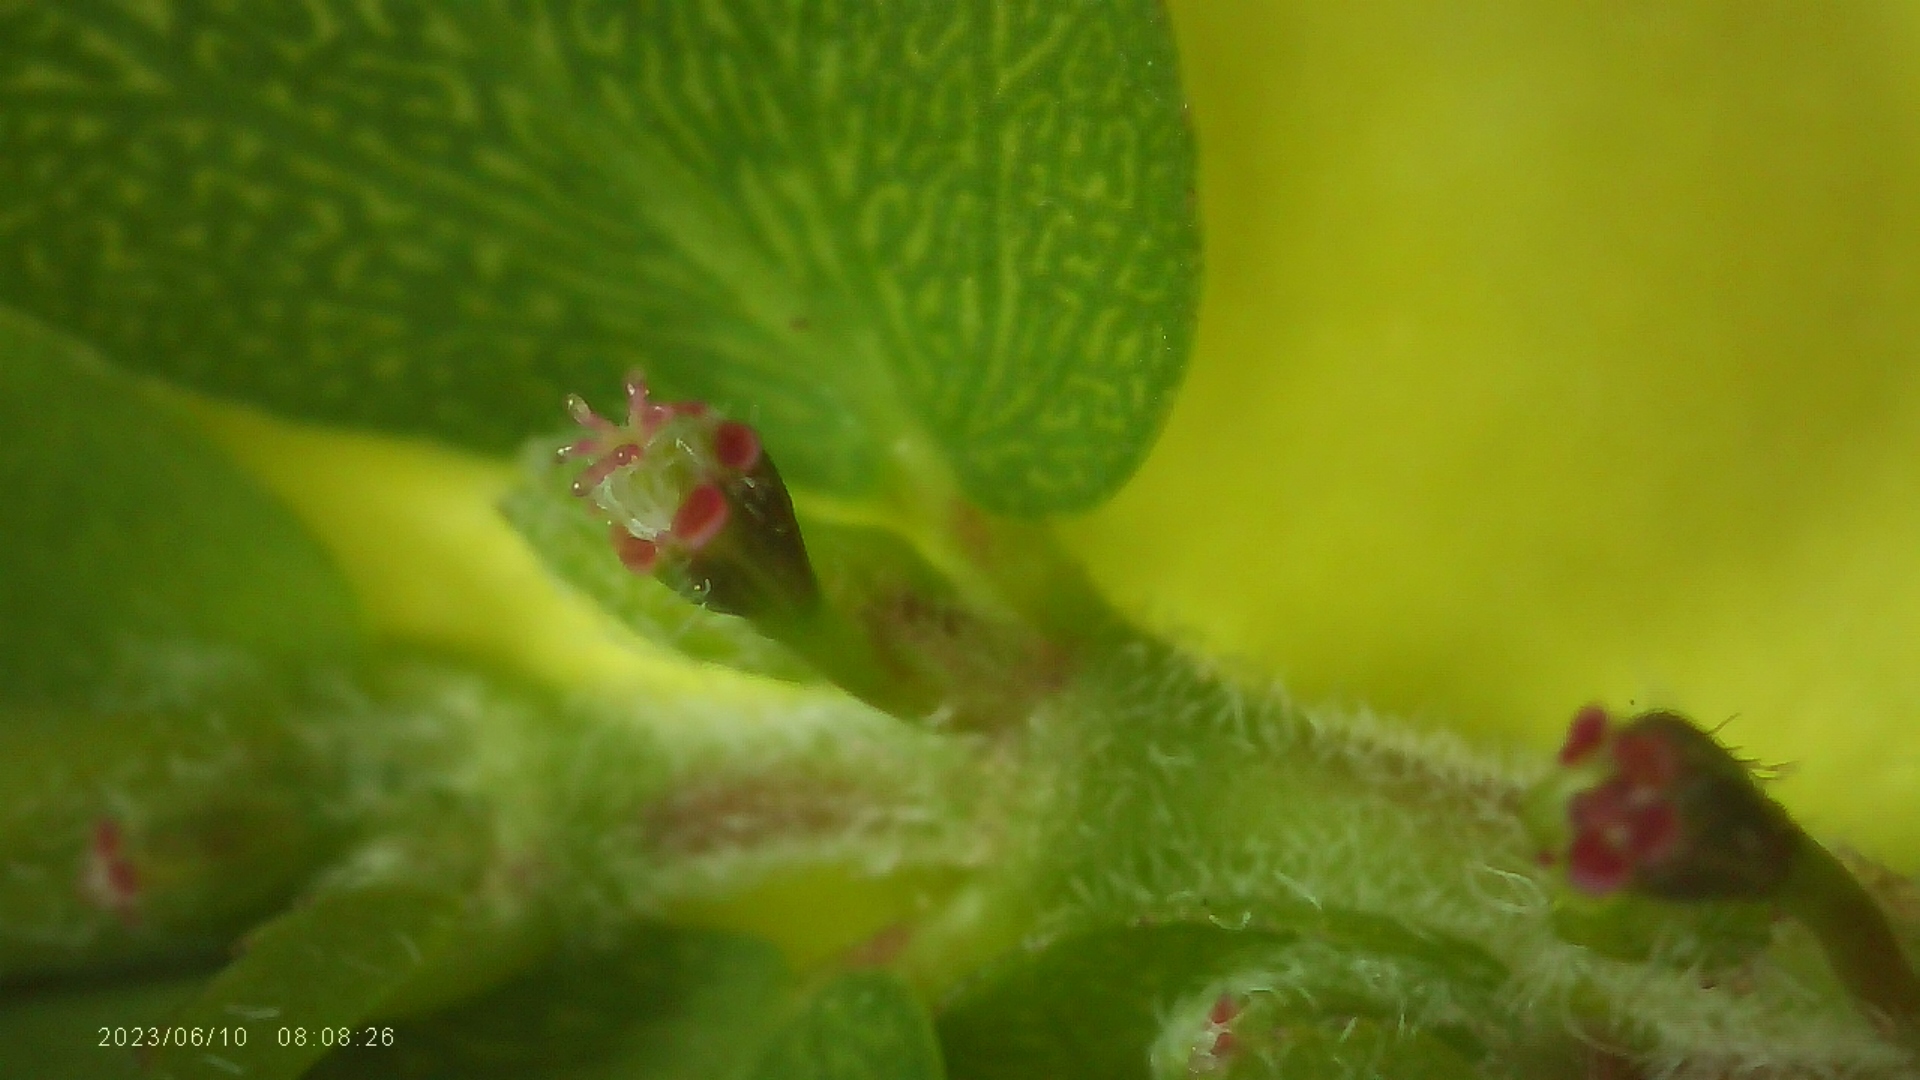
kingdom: Plantae
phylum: Tracheophyta
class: Magnoliopsida
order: Malpighiales
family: Euphorbiaceae
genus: Euphorbia
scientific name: Euphorbia prostrata
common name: Prostrate sandmat
